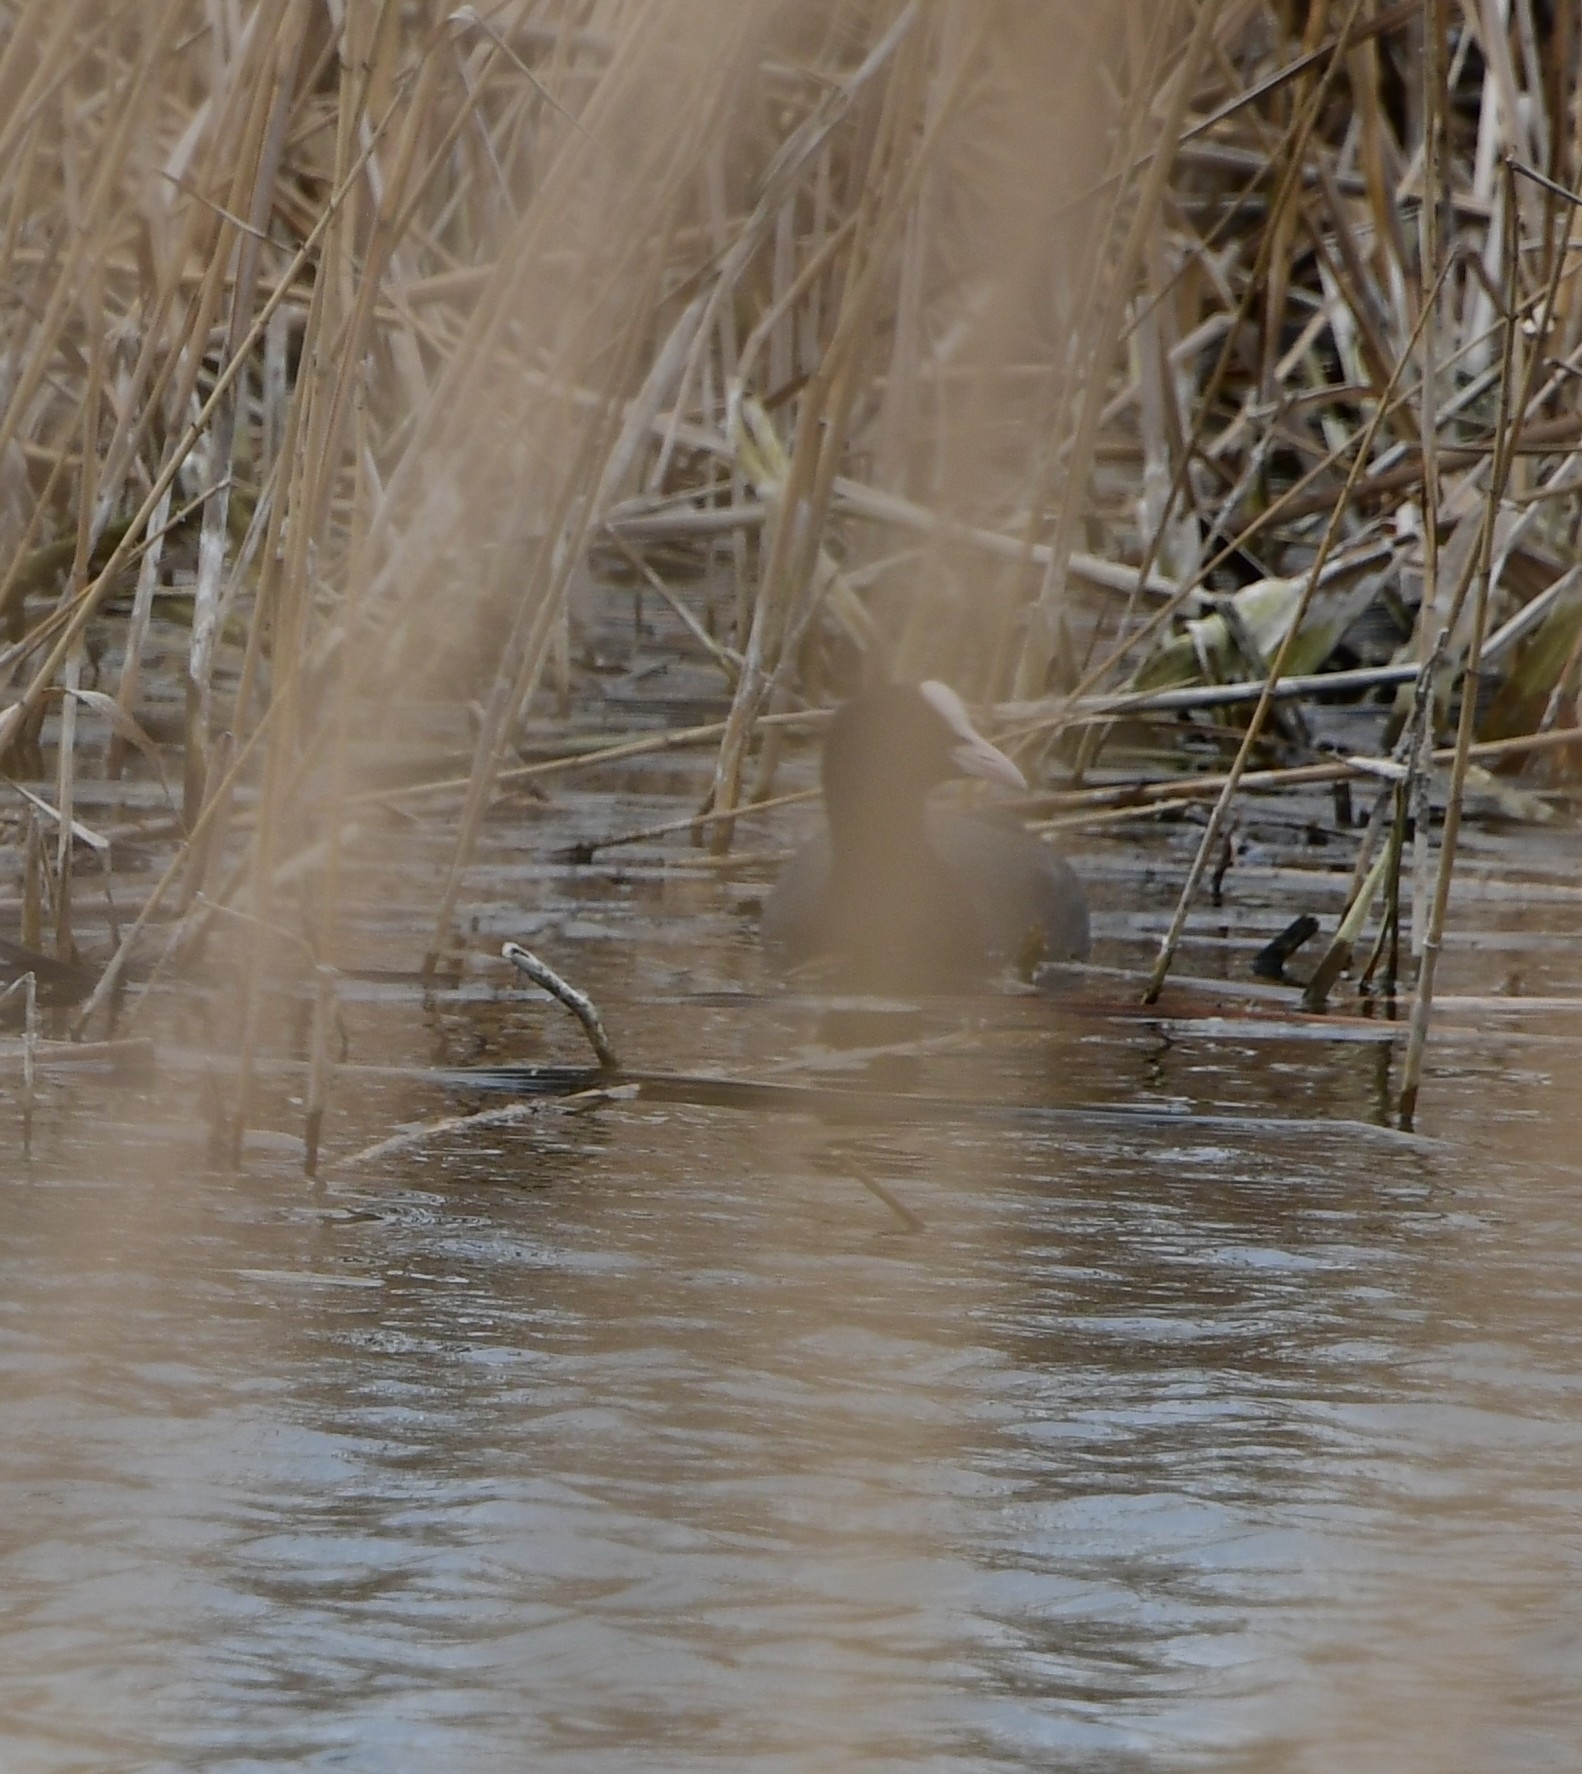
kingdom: Animalia
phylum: Chordata
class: Aves
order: Gruiformes
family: Rallidae
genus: Fulica
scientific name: Fulica atra
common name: Eurasian coot
